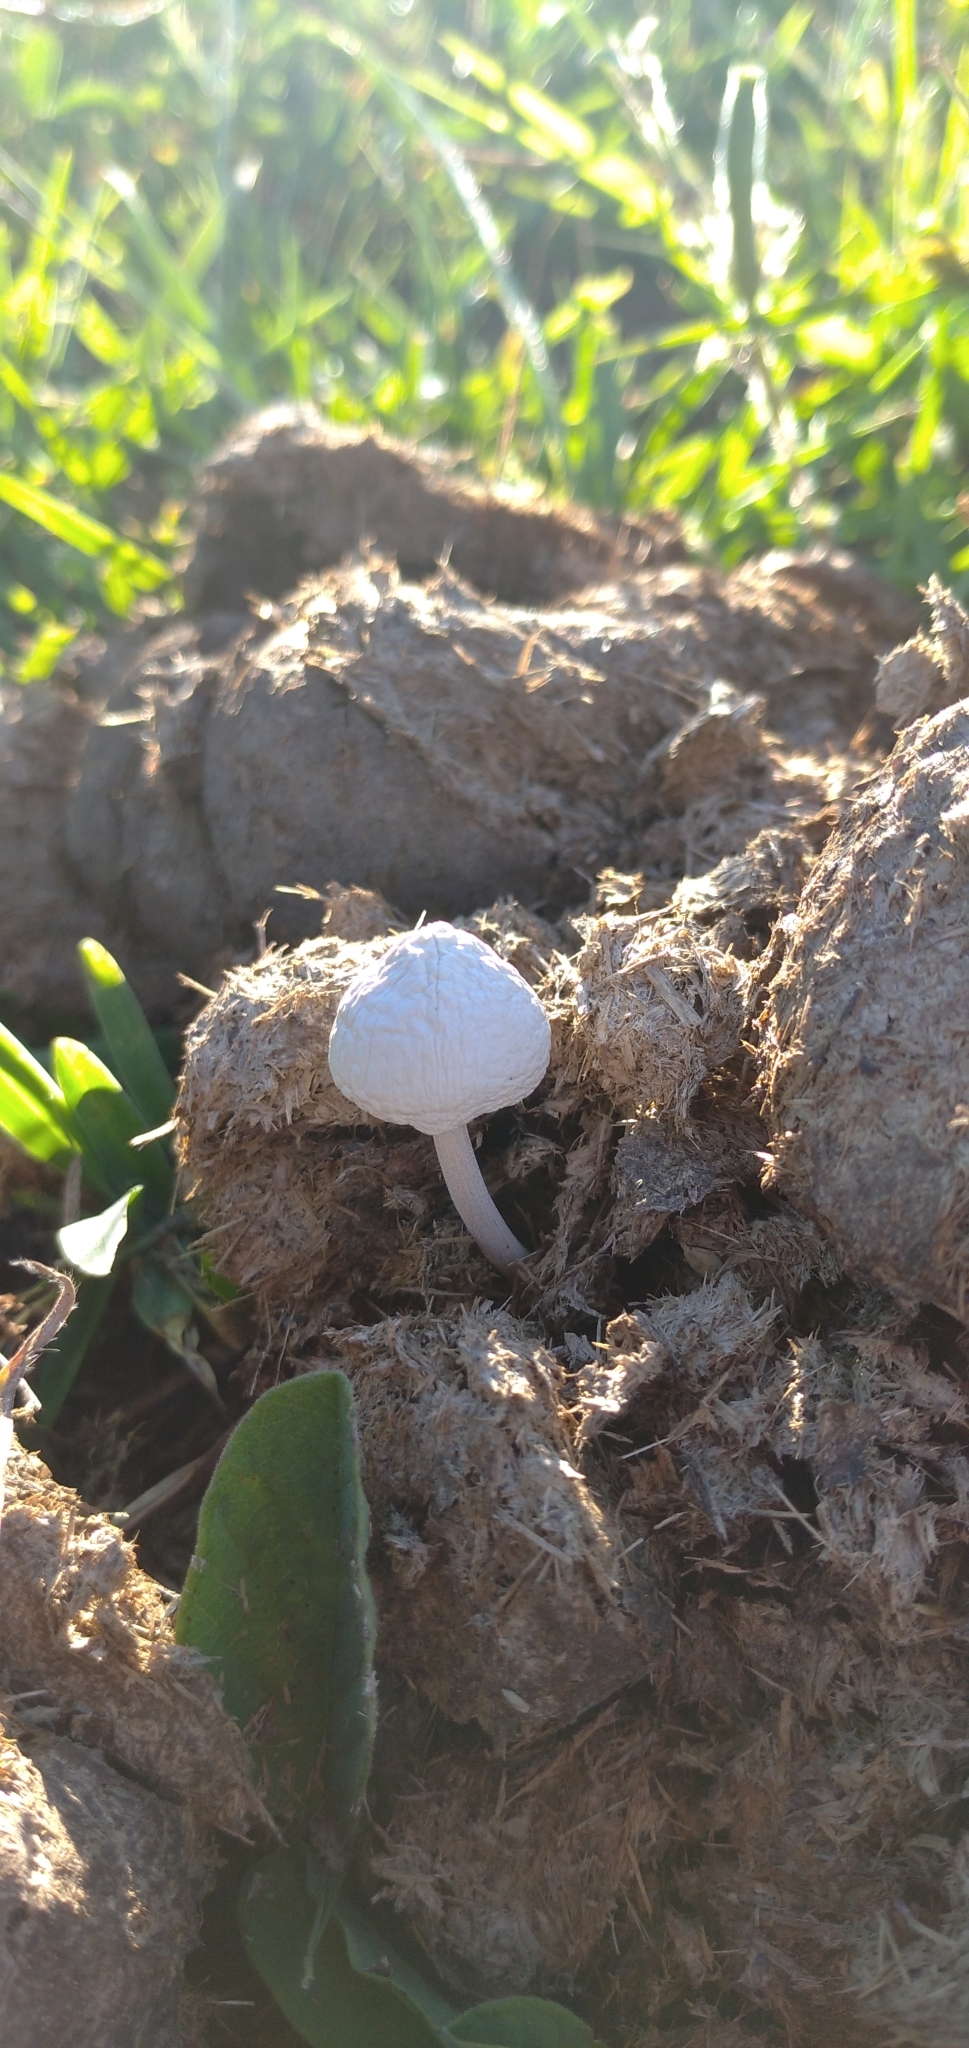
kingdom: Fungi
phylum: Basidiomycota
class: Agaricomycetes
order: Agaricales
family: Bolbitiaceae
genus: Panaeolus
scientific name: Panaeolus antillarum
